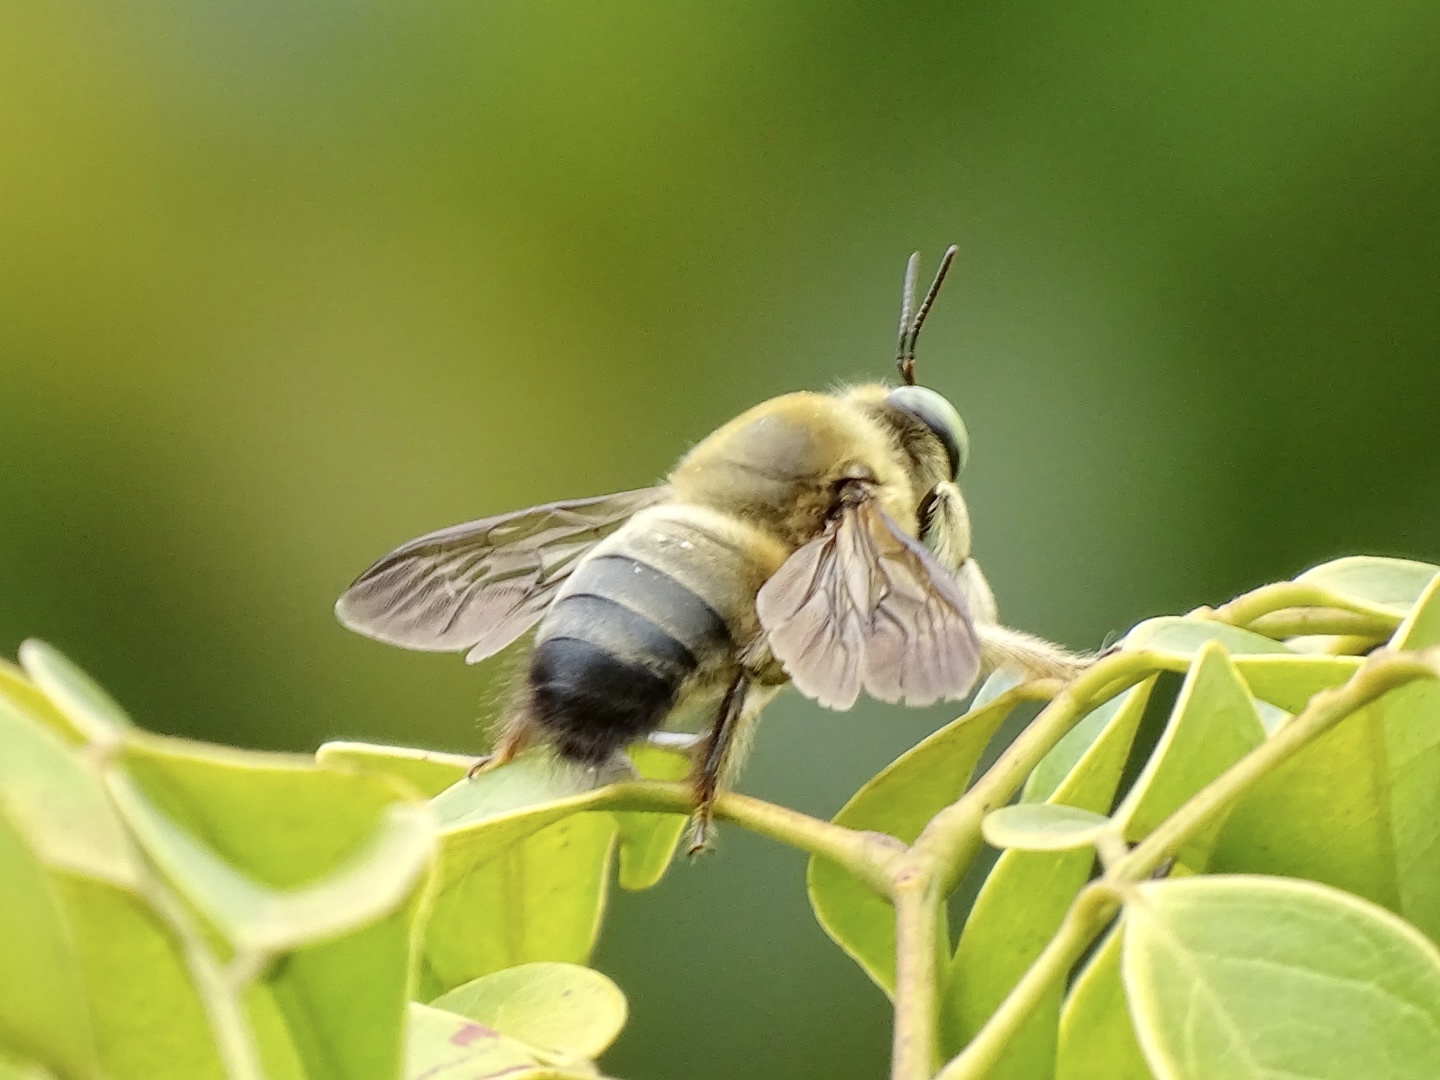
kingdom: Animalia
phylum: Arthropoda
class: Insecta
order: Hymenoptera
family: Apidae
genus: Xylocopa
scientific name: Xylocopa dejeanii
